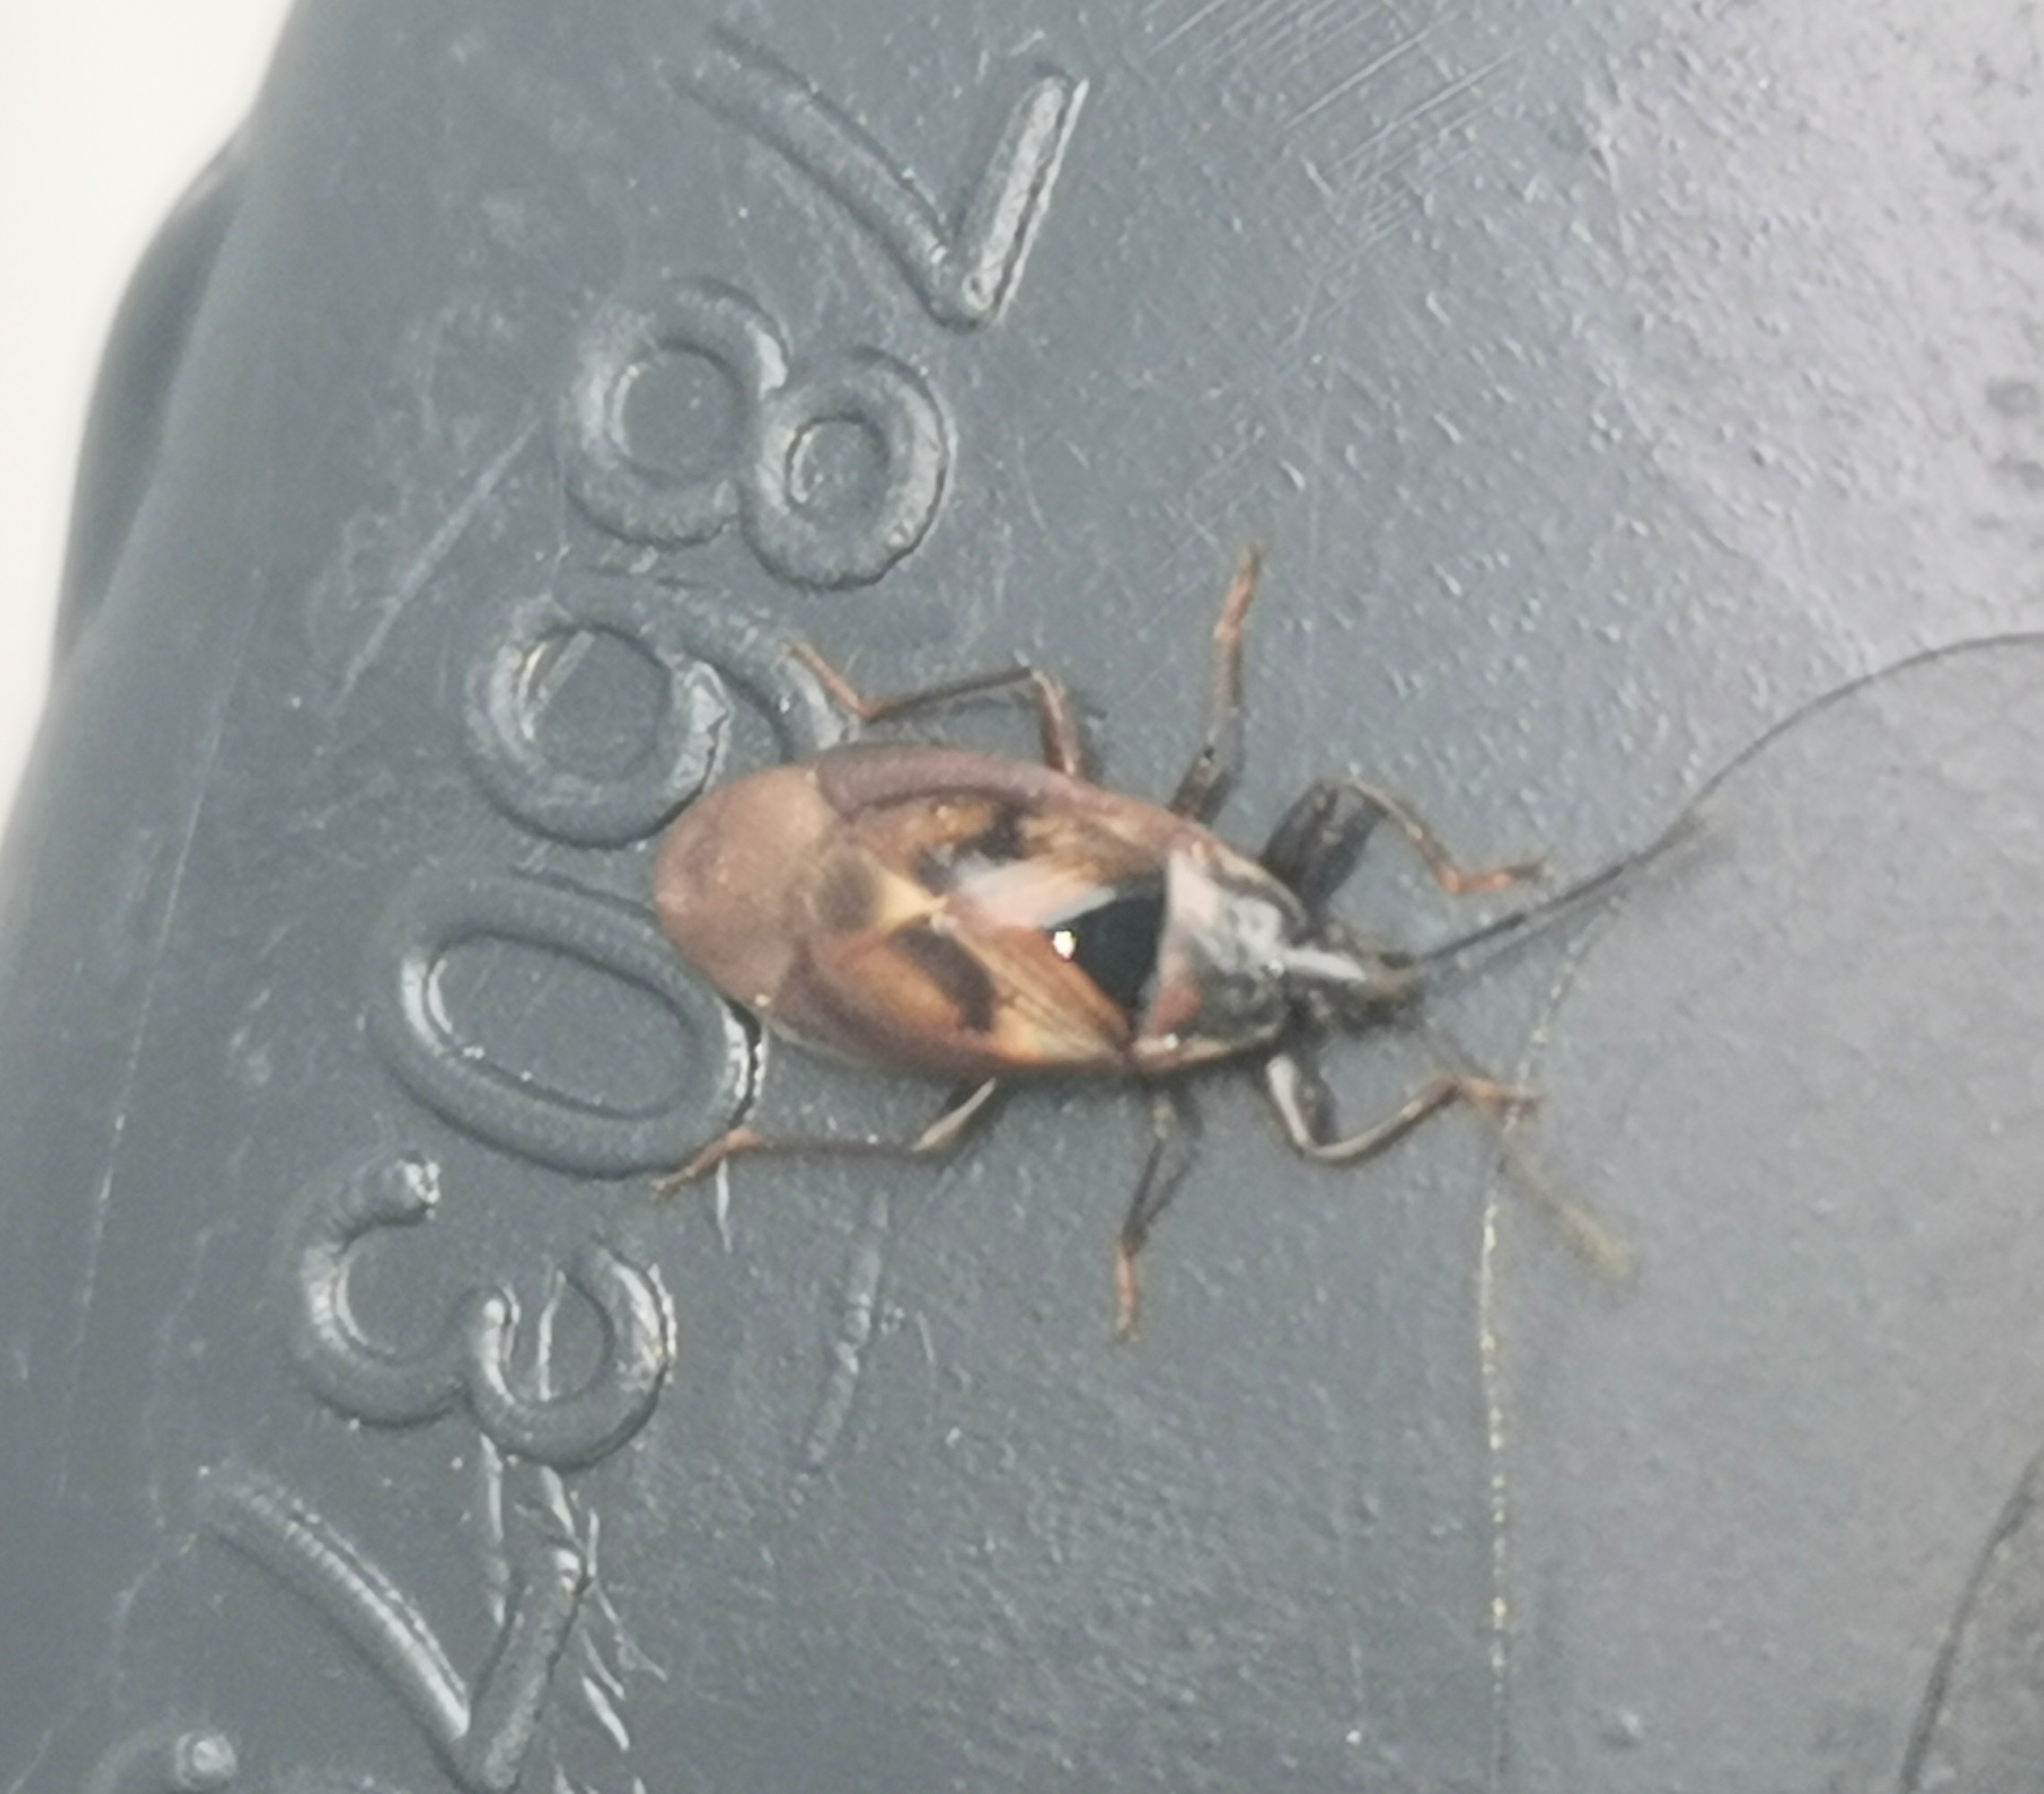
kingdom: Animalia
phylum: Arthropoda
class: Insecta
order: Hemiptera
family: Rhyparochromidae
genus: Gastrodes
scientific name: Gastrodes abietum
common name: Spruce cone bug
